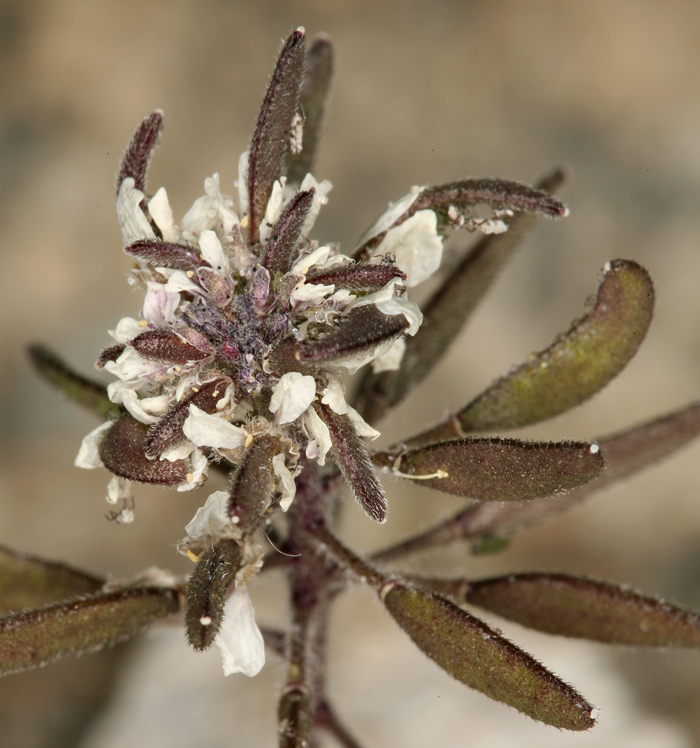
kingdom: Plantae
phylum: Tracheophyta
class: Magnoliopsida
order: Brassicales
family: Brassicaceae
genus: Tomostima
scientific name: Tomostima cuneifolia
